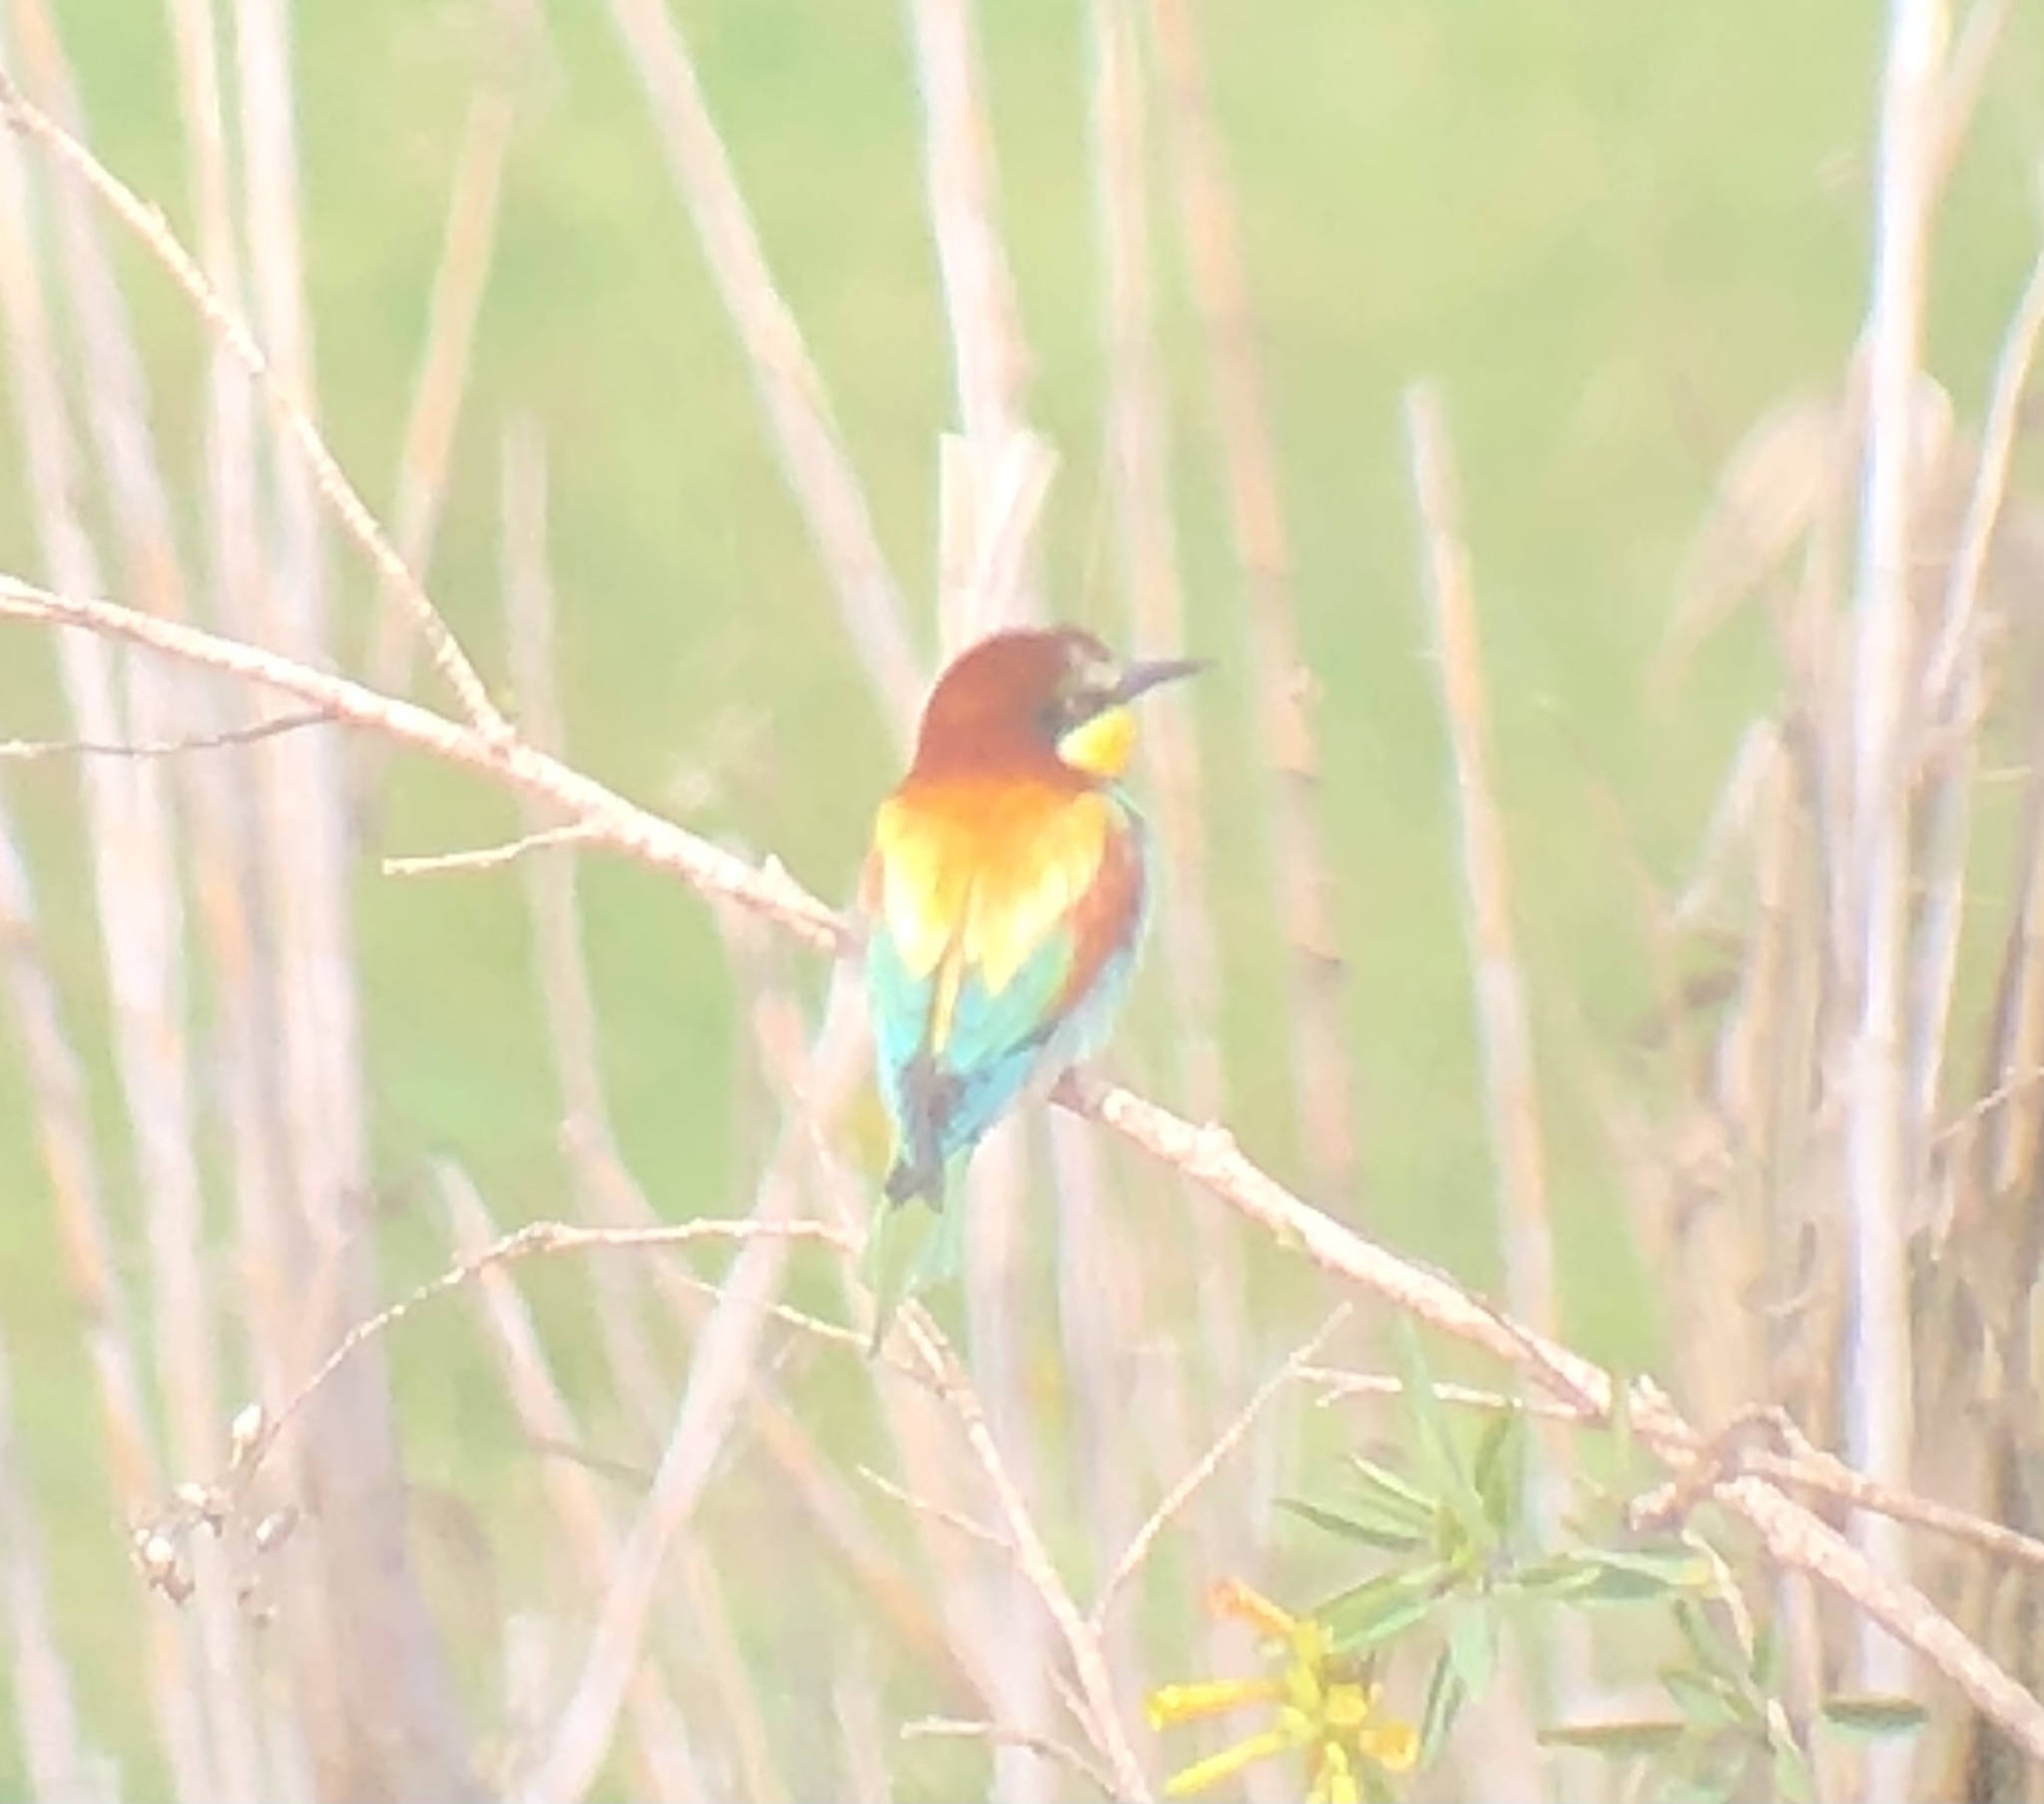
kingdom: Animalia
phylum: Chordata
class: Aves
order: Coraciiformes
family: Meropidae
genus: Merops
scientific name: Merops apiaster
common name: European bee-eater
